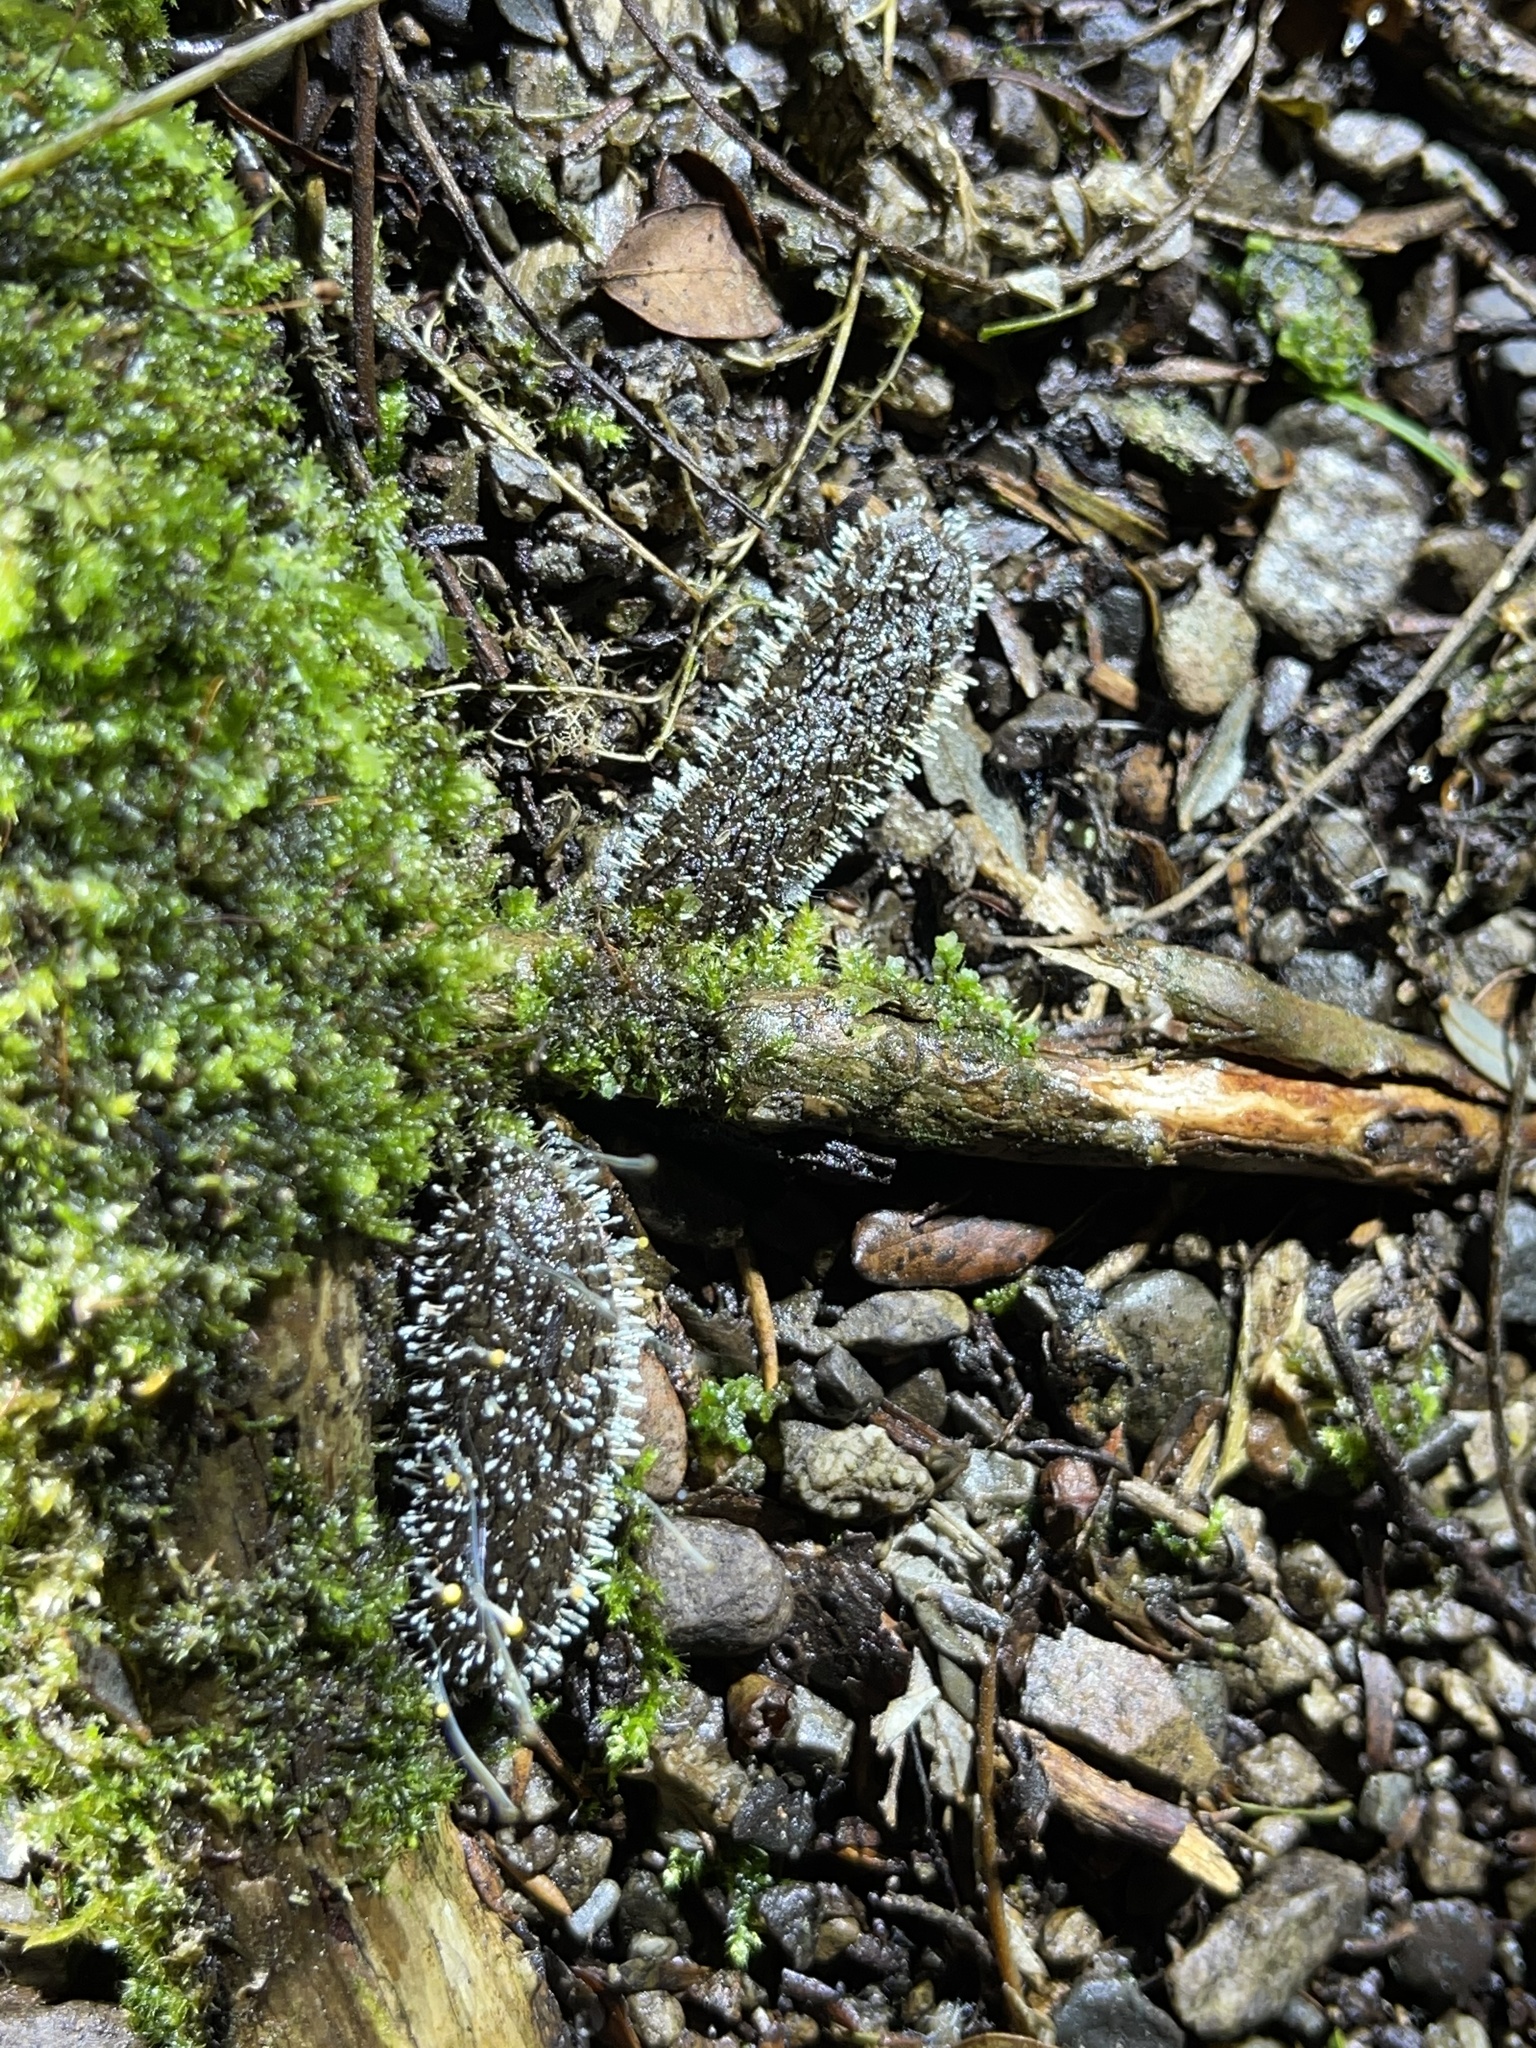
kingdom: Fungi
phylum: Ascomycota
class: Eurotiomycetes
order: Eurotiales
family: Aspergillaceae
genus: Penicillium
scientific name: Penicillium vulpinum
